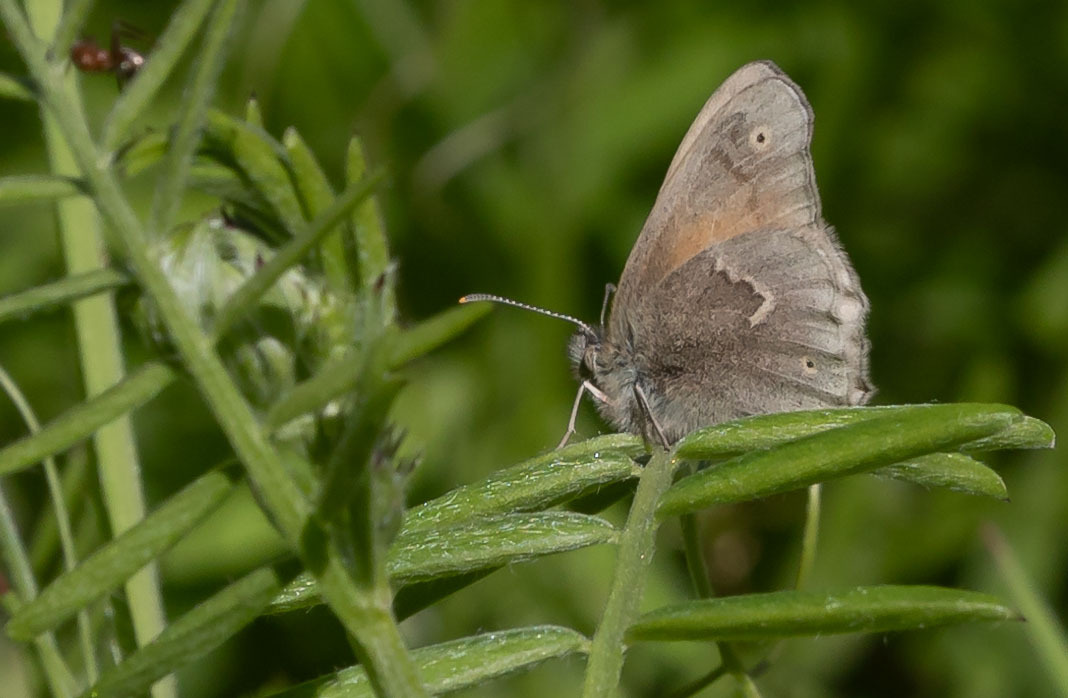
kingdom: Animalia
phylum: Arthropoda
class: Insecta
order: Lepidoptera
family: Nymphalidae
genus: Coenonympha
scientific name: Coenonympha california
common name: Common ringlet
